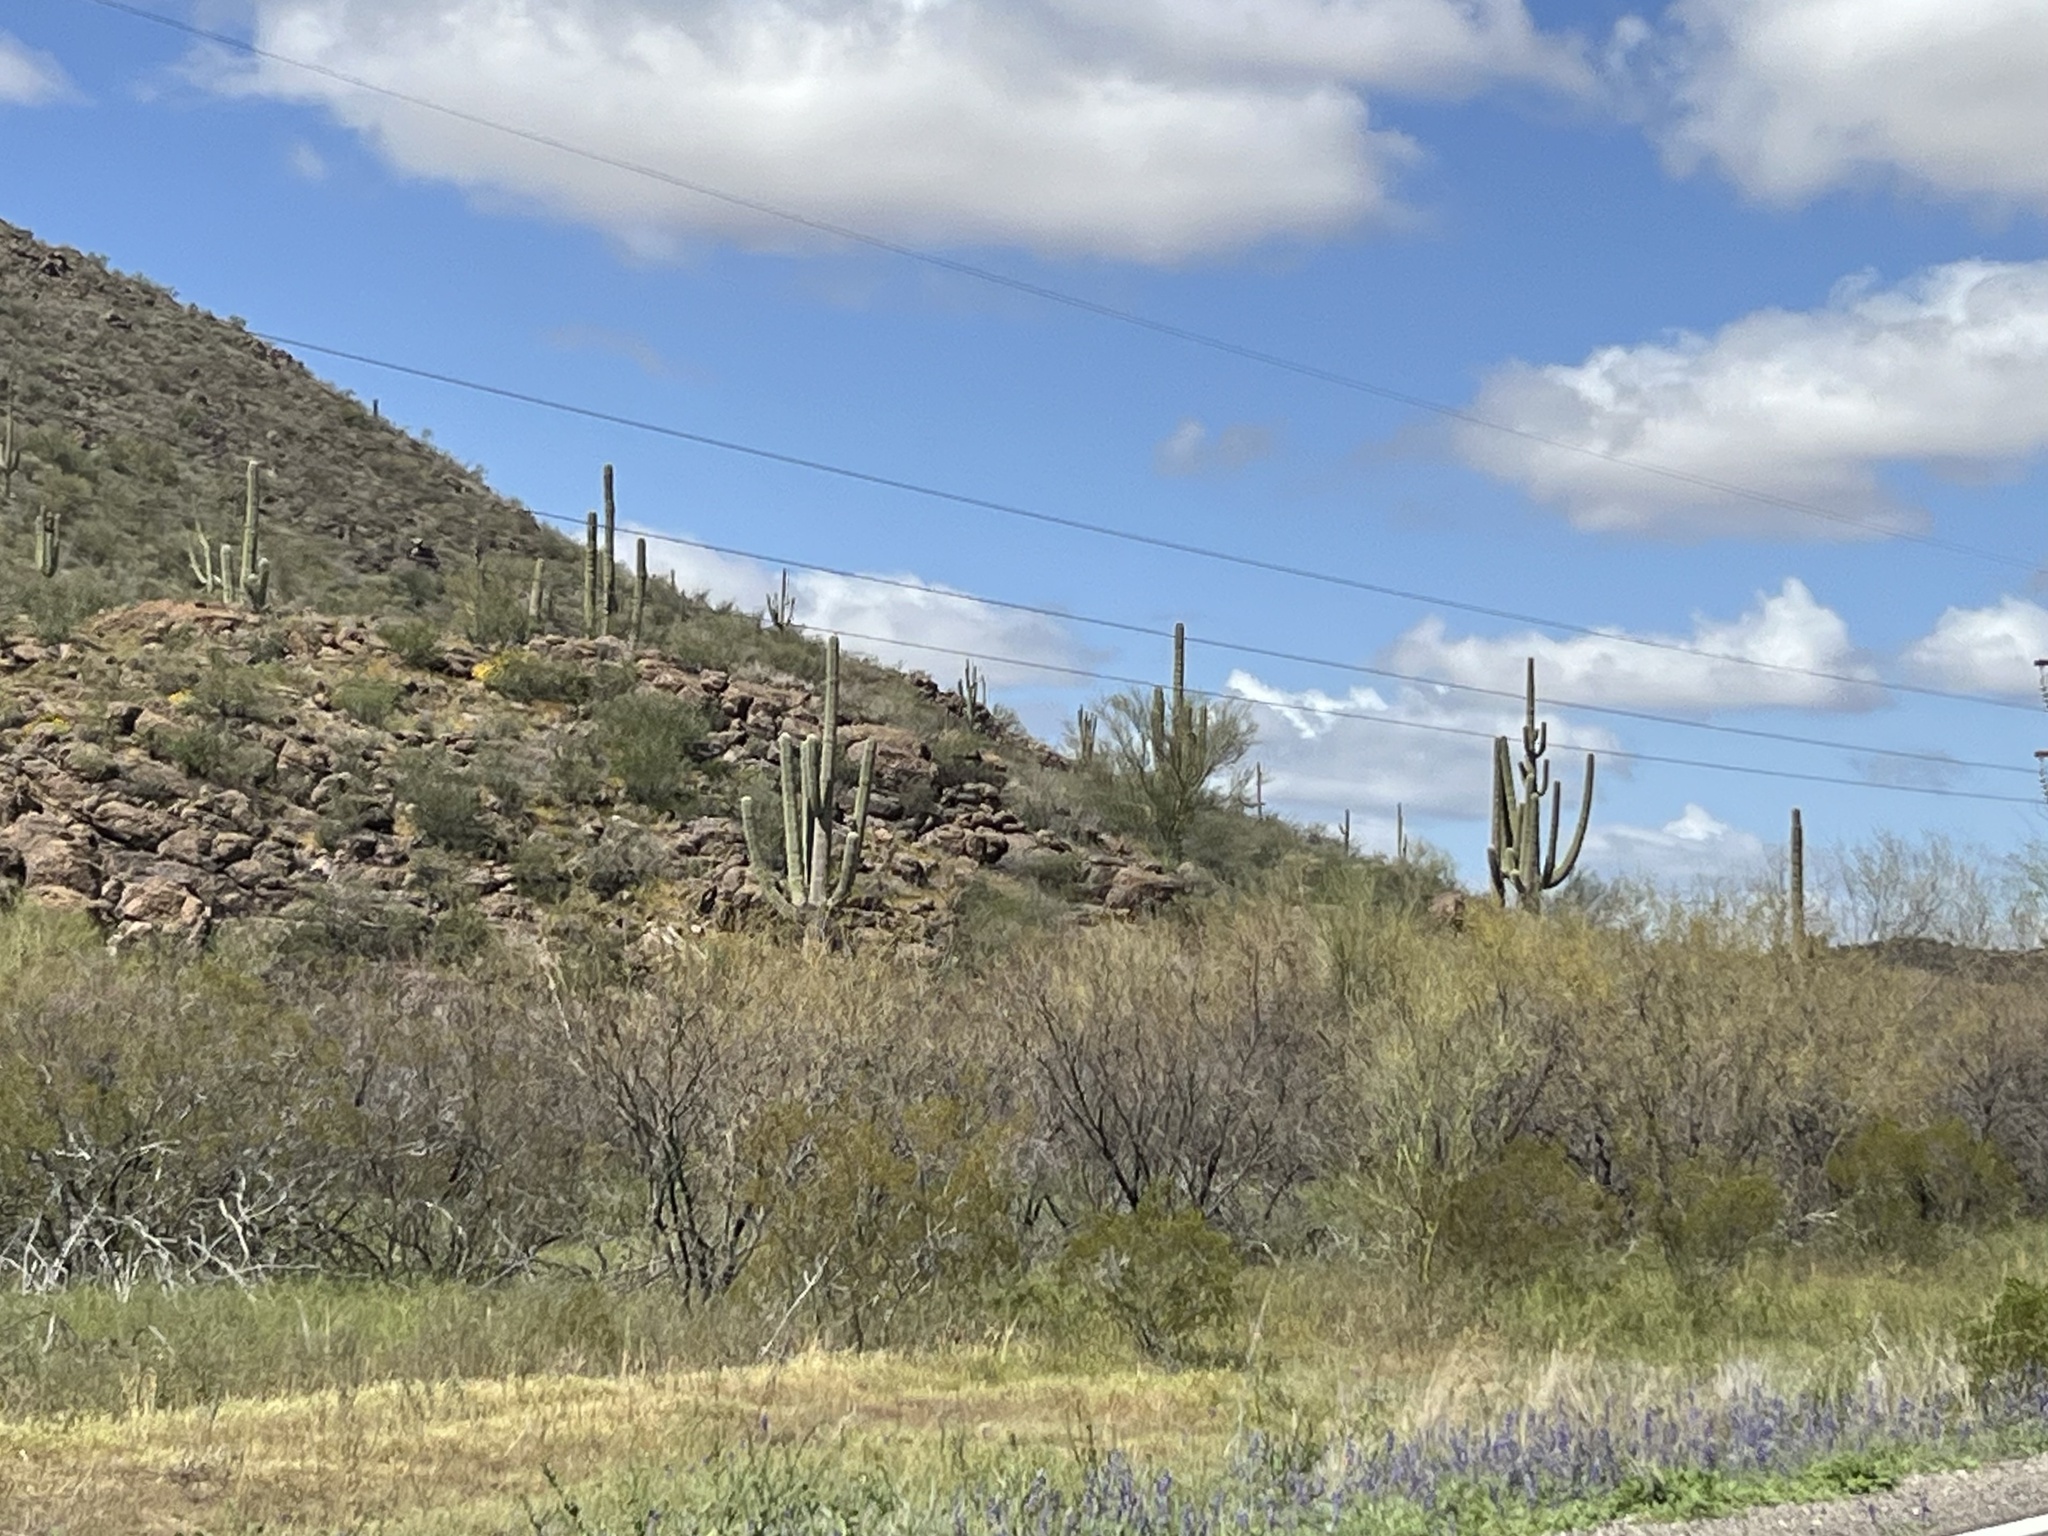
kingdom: Plantae
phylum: Tracheophyta
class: Magnoliopsida
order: Caryophyllales
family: Cactaceae
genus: Carnegiea
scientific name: Carnegiea gigantea
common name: Saguaro
